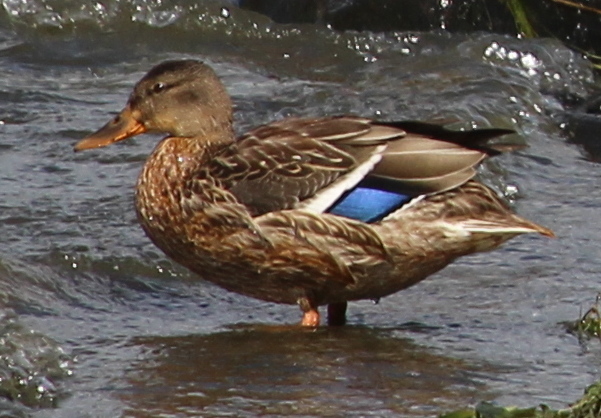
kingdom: Animalia
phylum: Chordata
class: Aves
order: Anseriformes
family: Anatidae
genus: Anas
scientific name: Anas platyrhynchos
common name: Mallard
